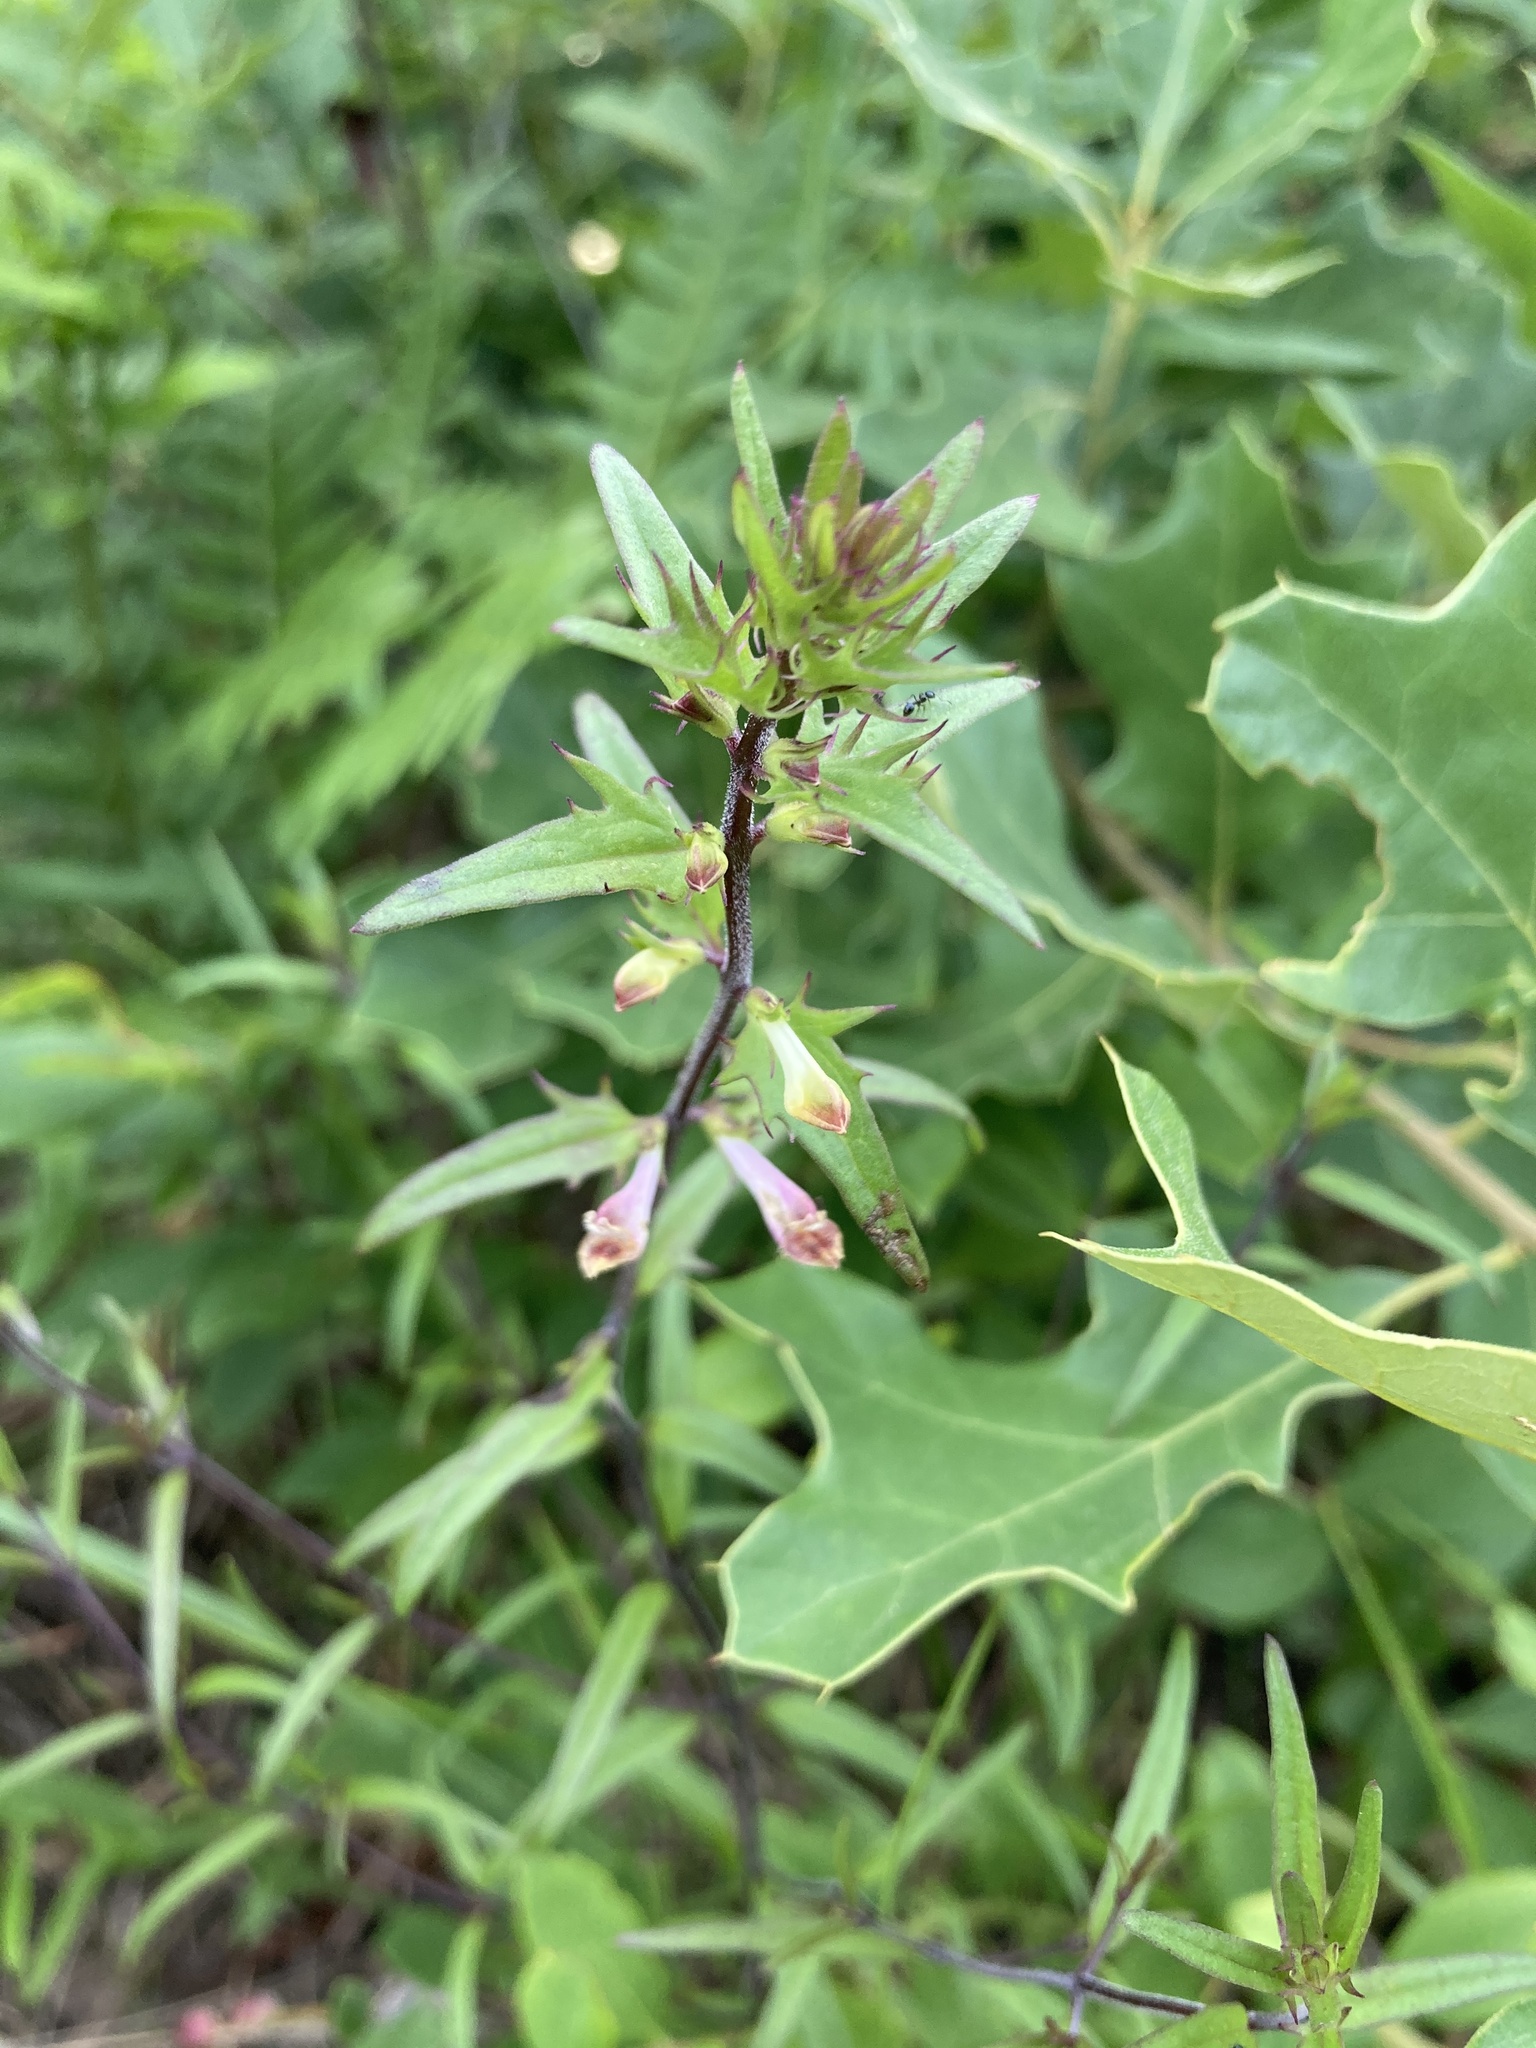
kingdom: Plantae
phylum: Tracheophyta
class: Magnoliopsida
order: Lamiales
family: Orobanchaceae
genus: Melampyrum
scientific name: Melampyrum lineare
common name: American cow-wheat
